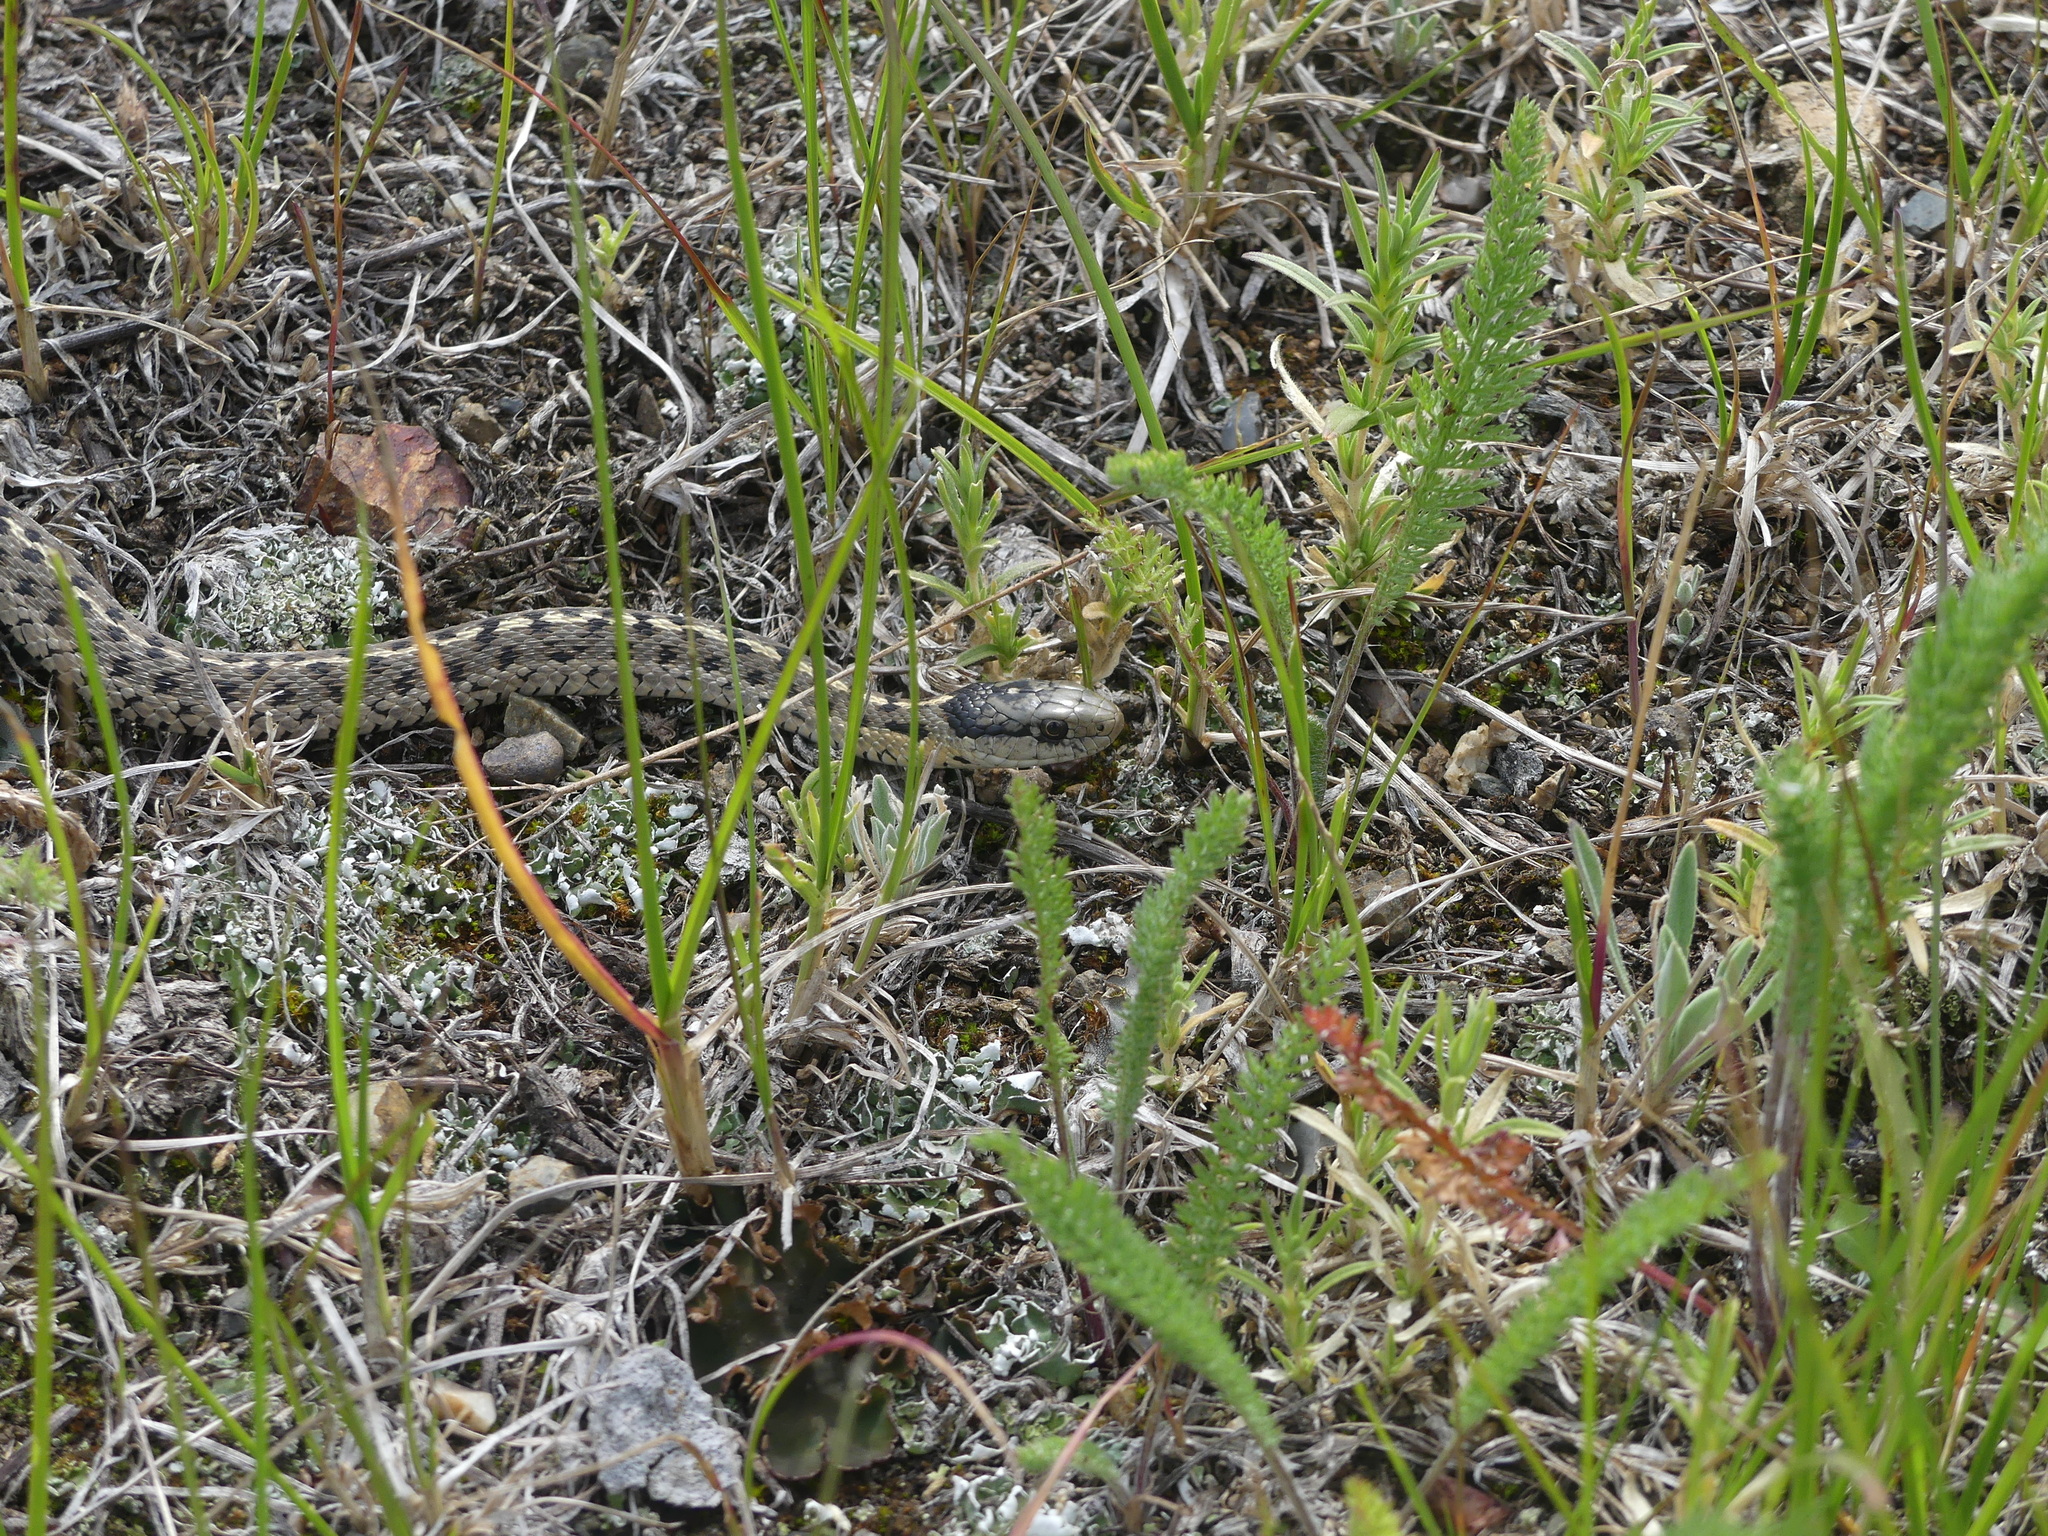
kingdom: Animalia
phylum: Chordata
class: Squamata
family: Colubridae
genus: Thamnophis
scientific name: Thamnophis elegans
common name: Western terrestrial garter snake
